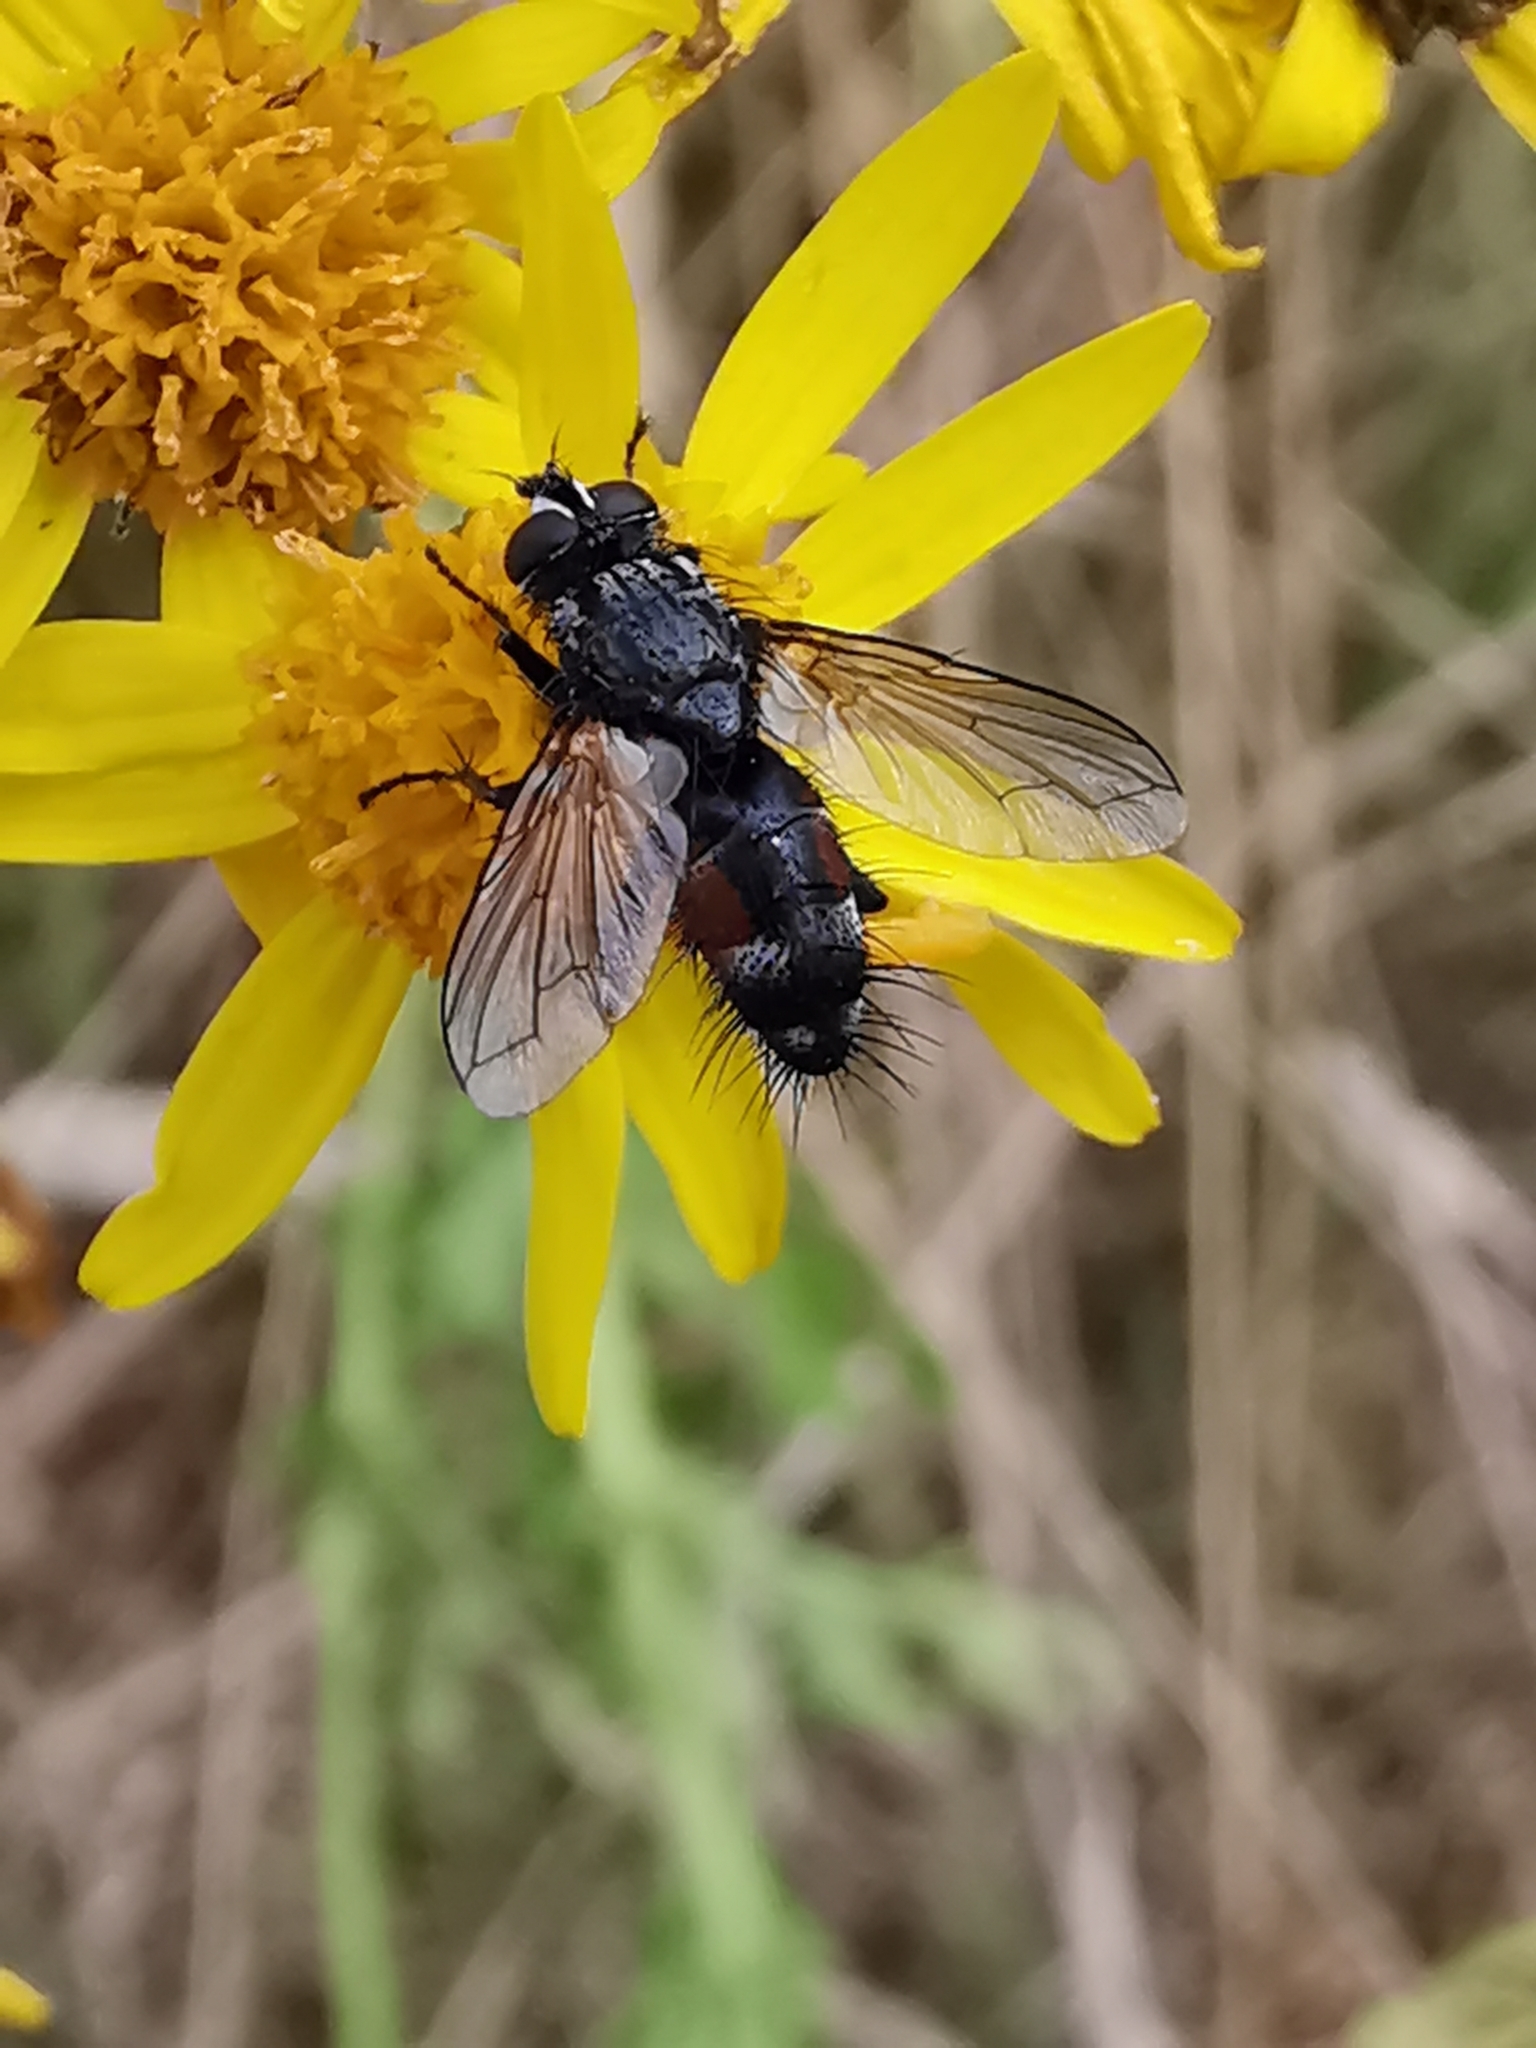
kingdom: Animalia
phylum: Arthropoda
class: Insecta
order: Diptera
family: Tachinidae
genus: Eriothrix
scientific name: Eriothrix rufomaculatus
